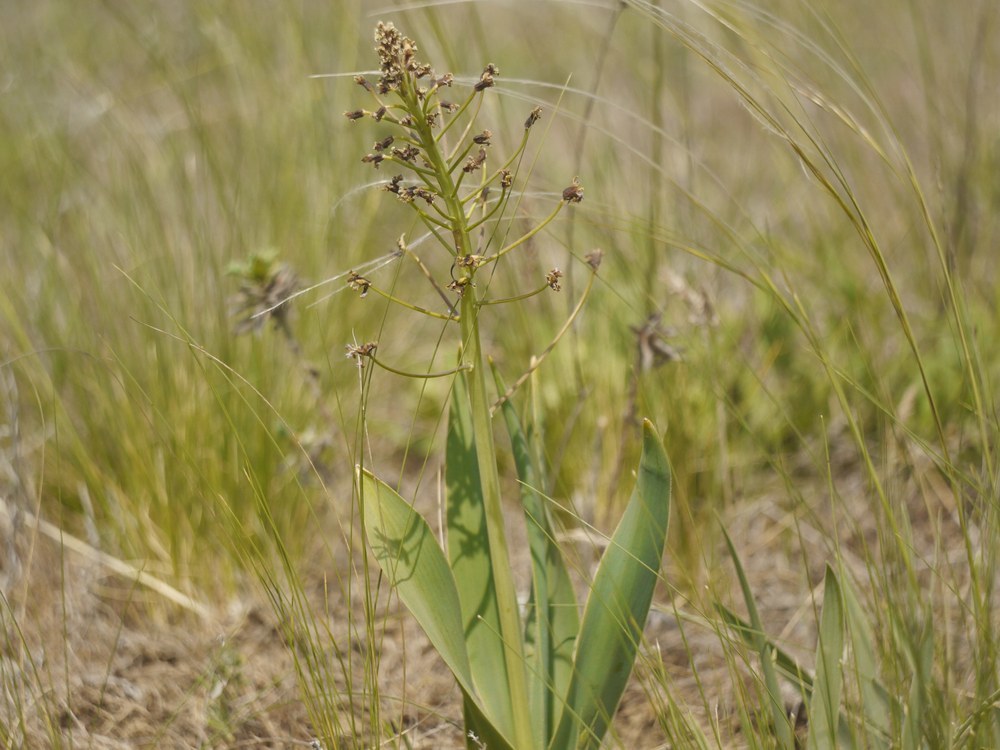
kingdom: Plantae
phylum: Tracheophyta
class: Liliopsida
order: Asparagales
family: Asparagaceae
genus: Bellevalia
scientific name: Bellevalia speciosa
